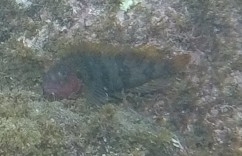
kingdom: Animalia
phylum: Chordata
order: Perciformes
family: Labrisomidae
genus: Labrisomus
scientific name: Labrisomus nuchipinnis
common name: Hairy blenny
